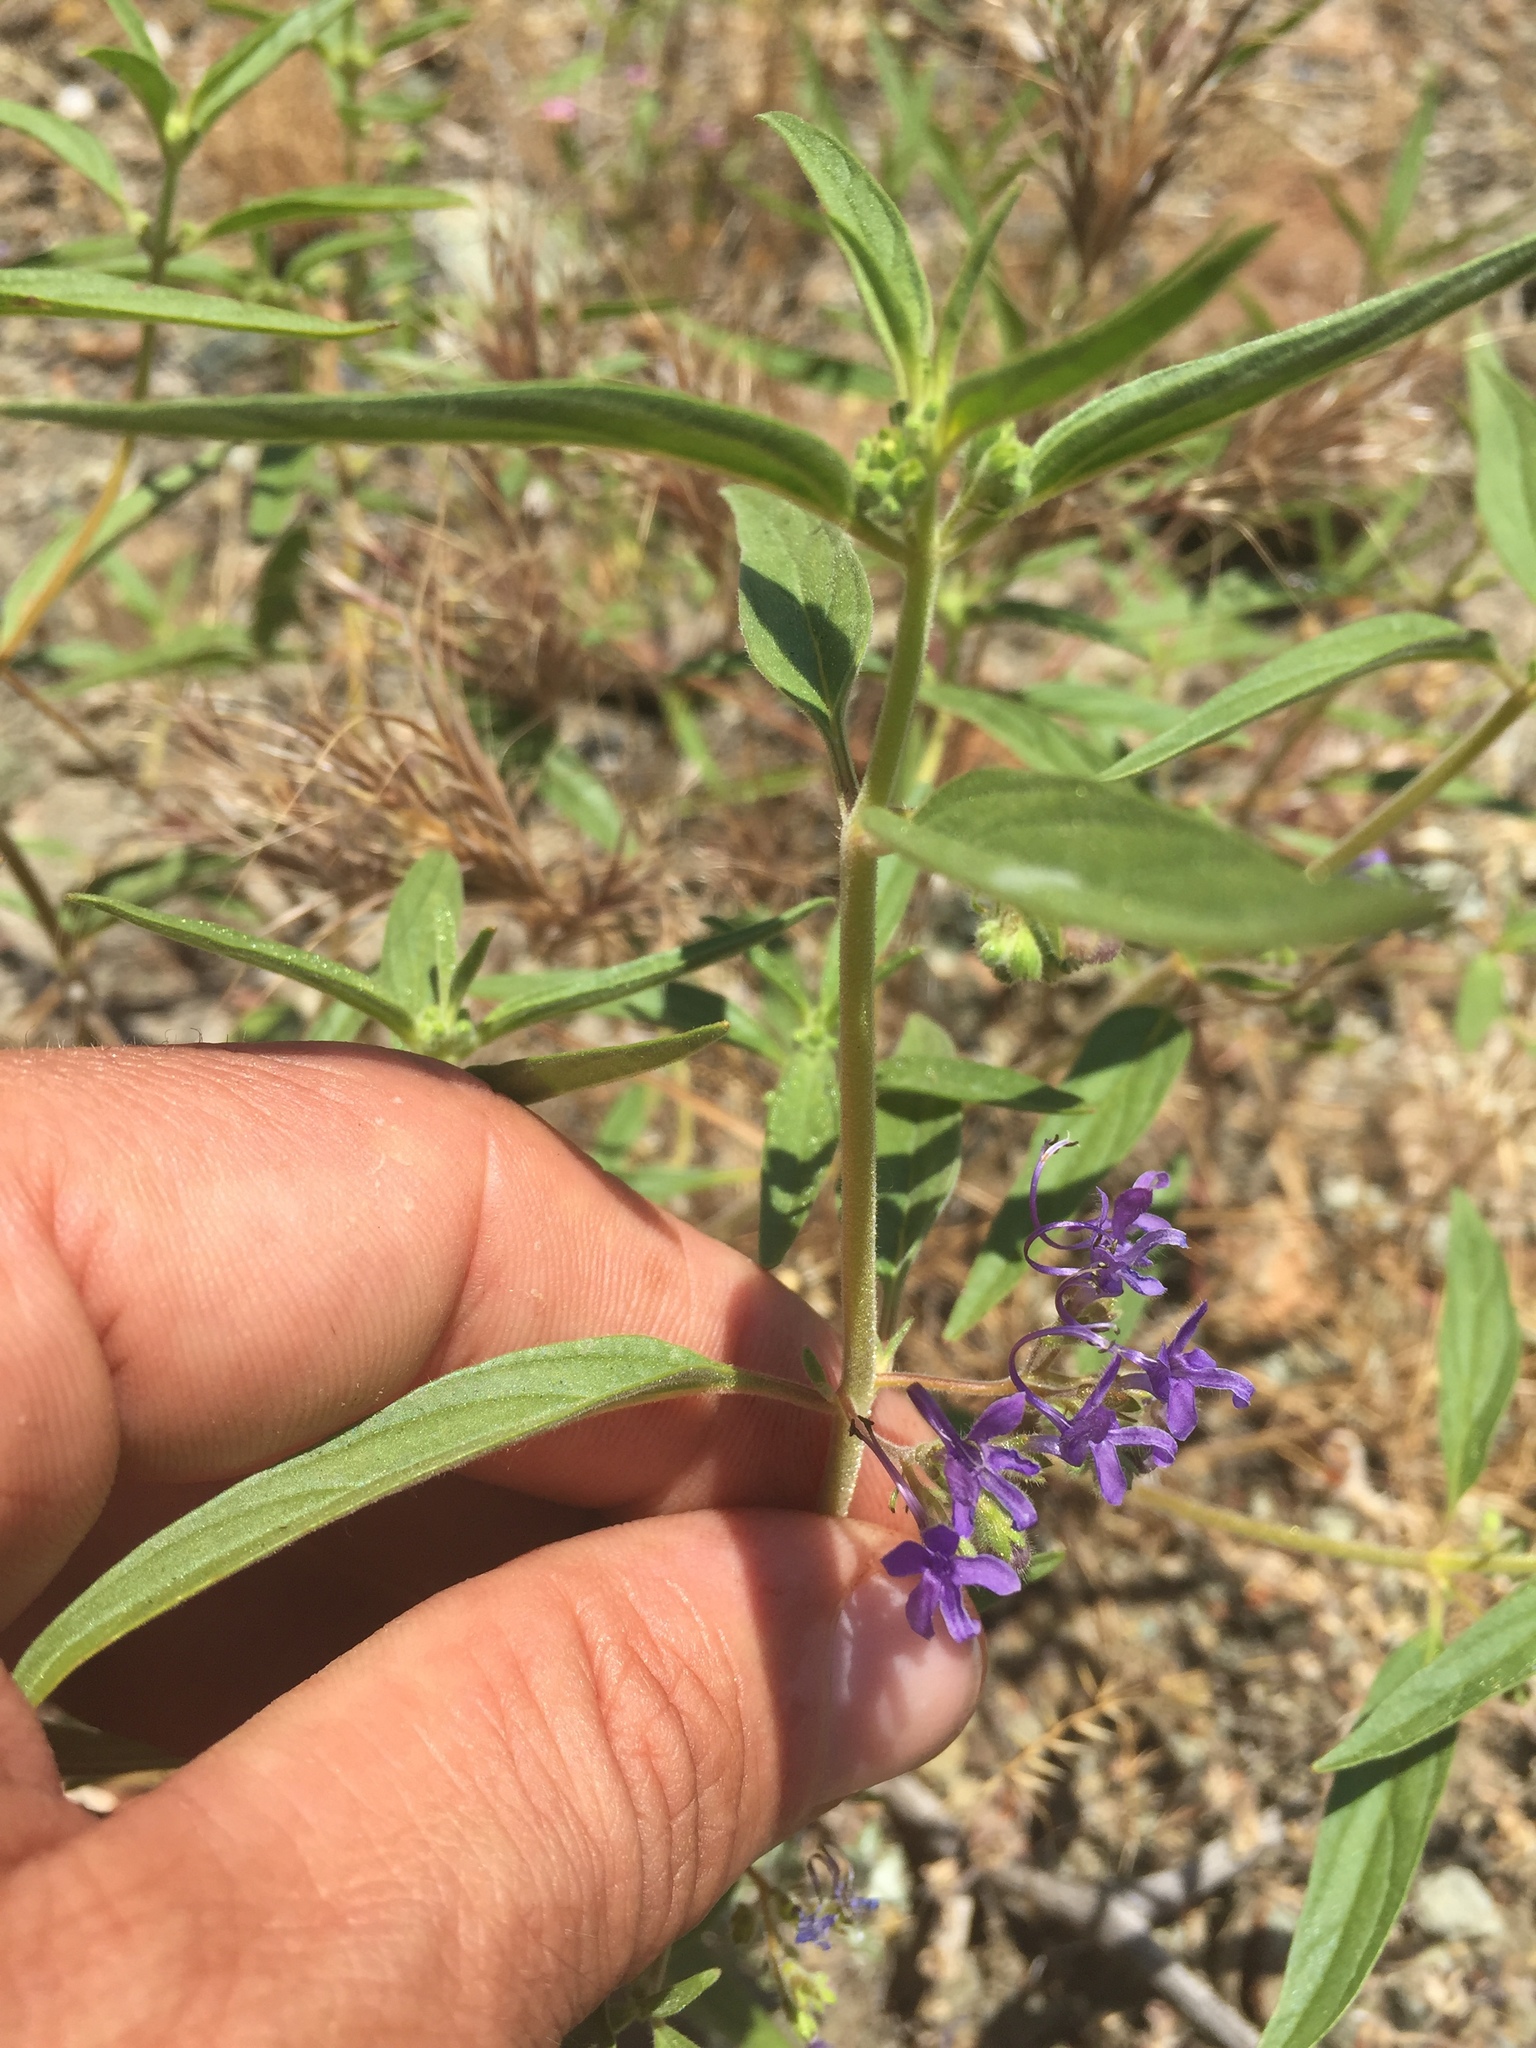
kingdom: Plantae
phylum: Tracheophyta
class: Magnoliopsida
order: Lamiales
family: Lamiaceae
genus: Trichostema
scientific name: Trichostema laxum
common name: Turpentine weed
